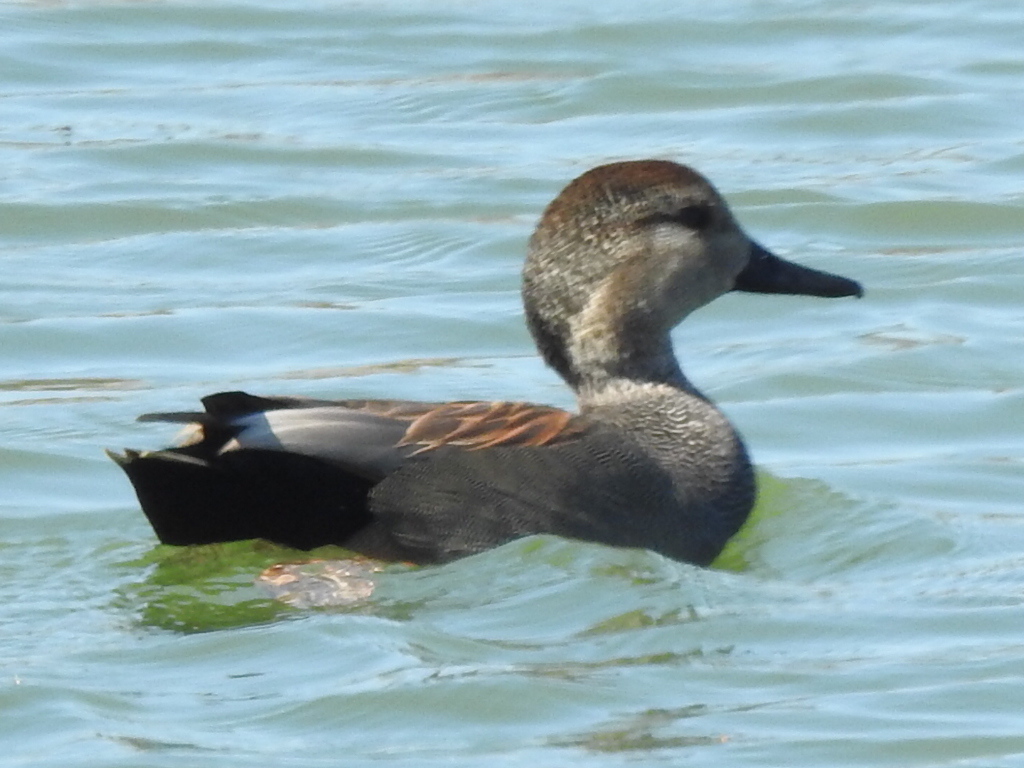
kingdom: Animalia
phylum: Chordata
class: Aves
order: Anseriformes
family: Anatidae
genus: Mareca
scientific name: Mareca strepera
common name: Gadwall
